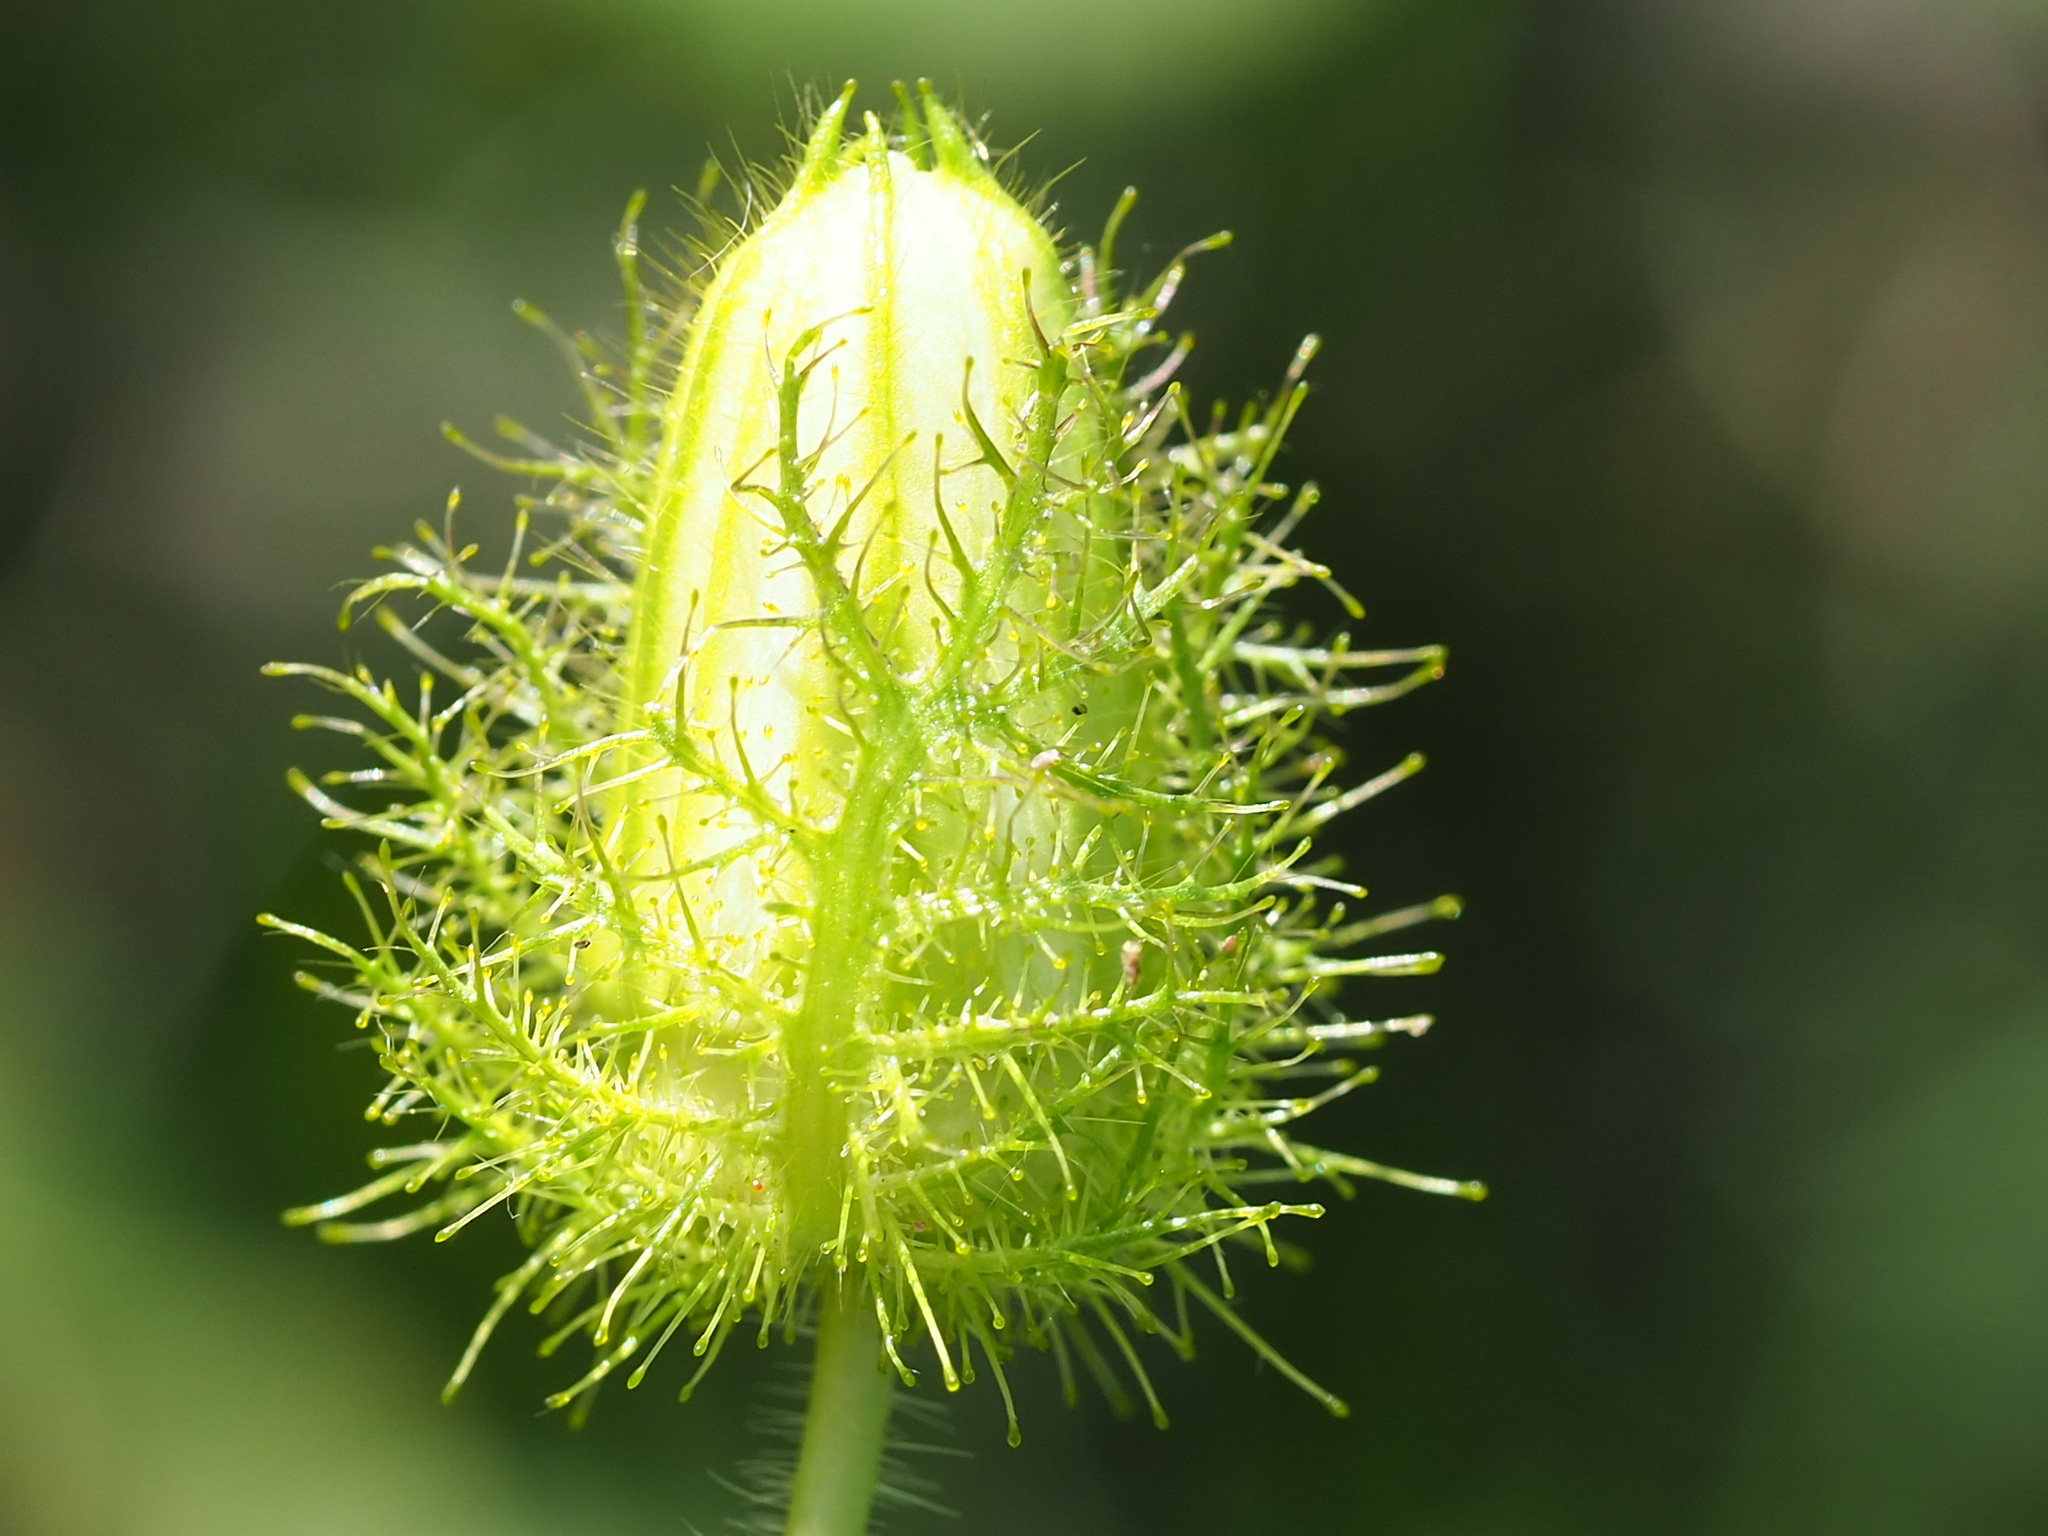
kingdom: Plantae
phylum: Tracheophyta
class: Magnoliopsida
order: Malpighiales
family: Passifloraceae
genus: Passiflora
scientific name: Passiflora vesicaria
